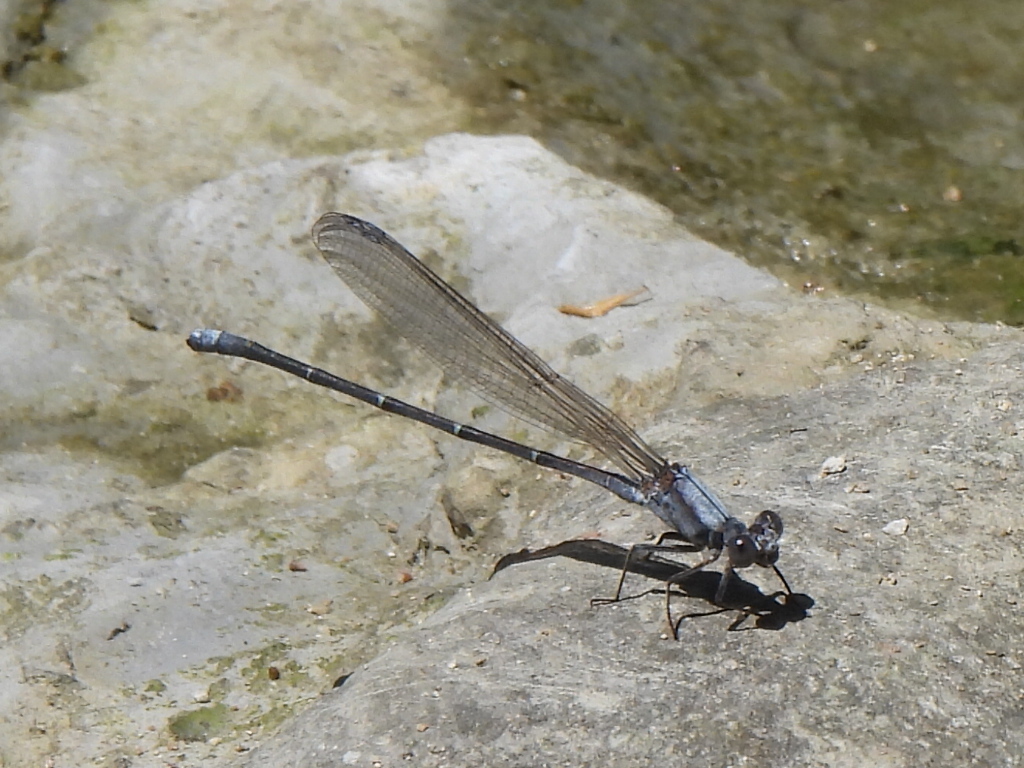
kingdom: Animalia
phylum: Arthropoda
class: Insecta
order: Odonata
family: Coenagrionidae
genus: Argia
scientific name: Argia moesta
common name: Powdered dancer
